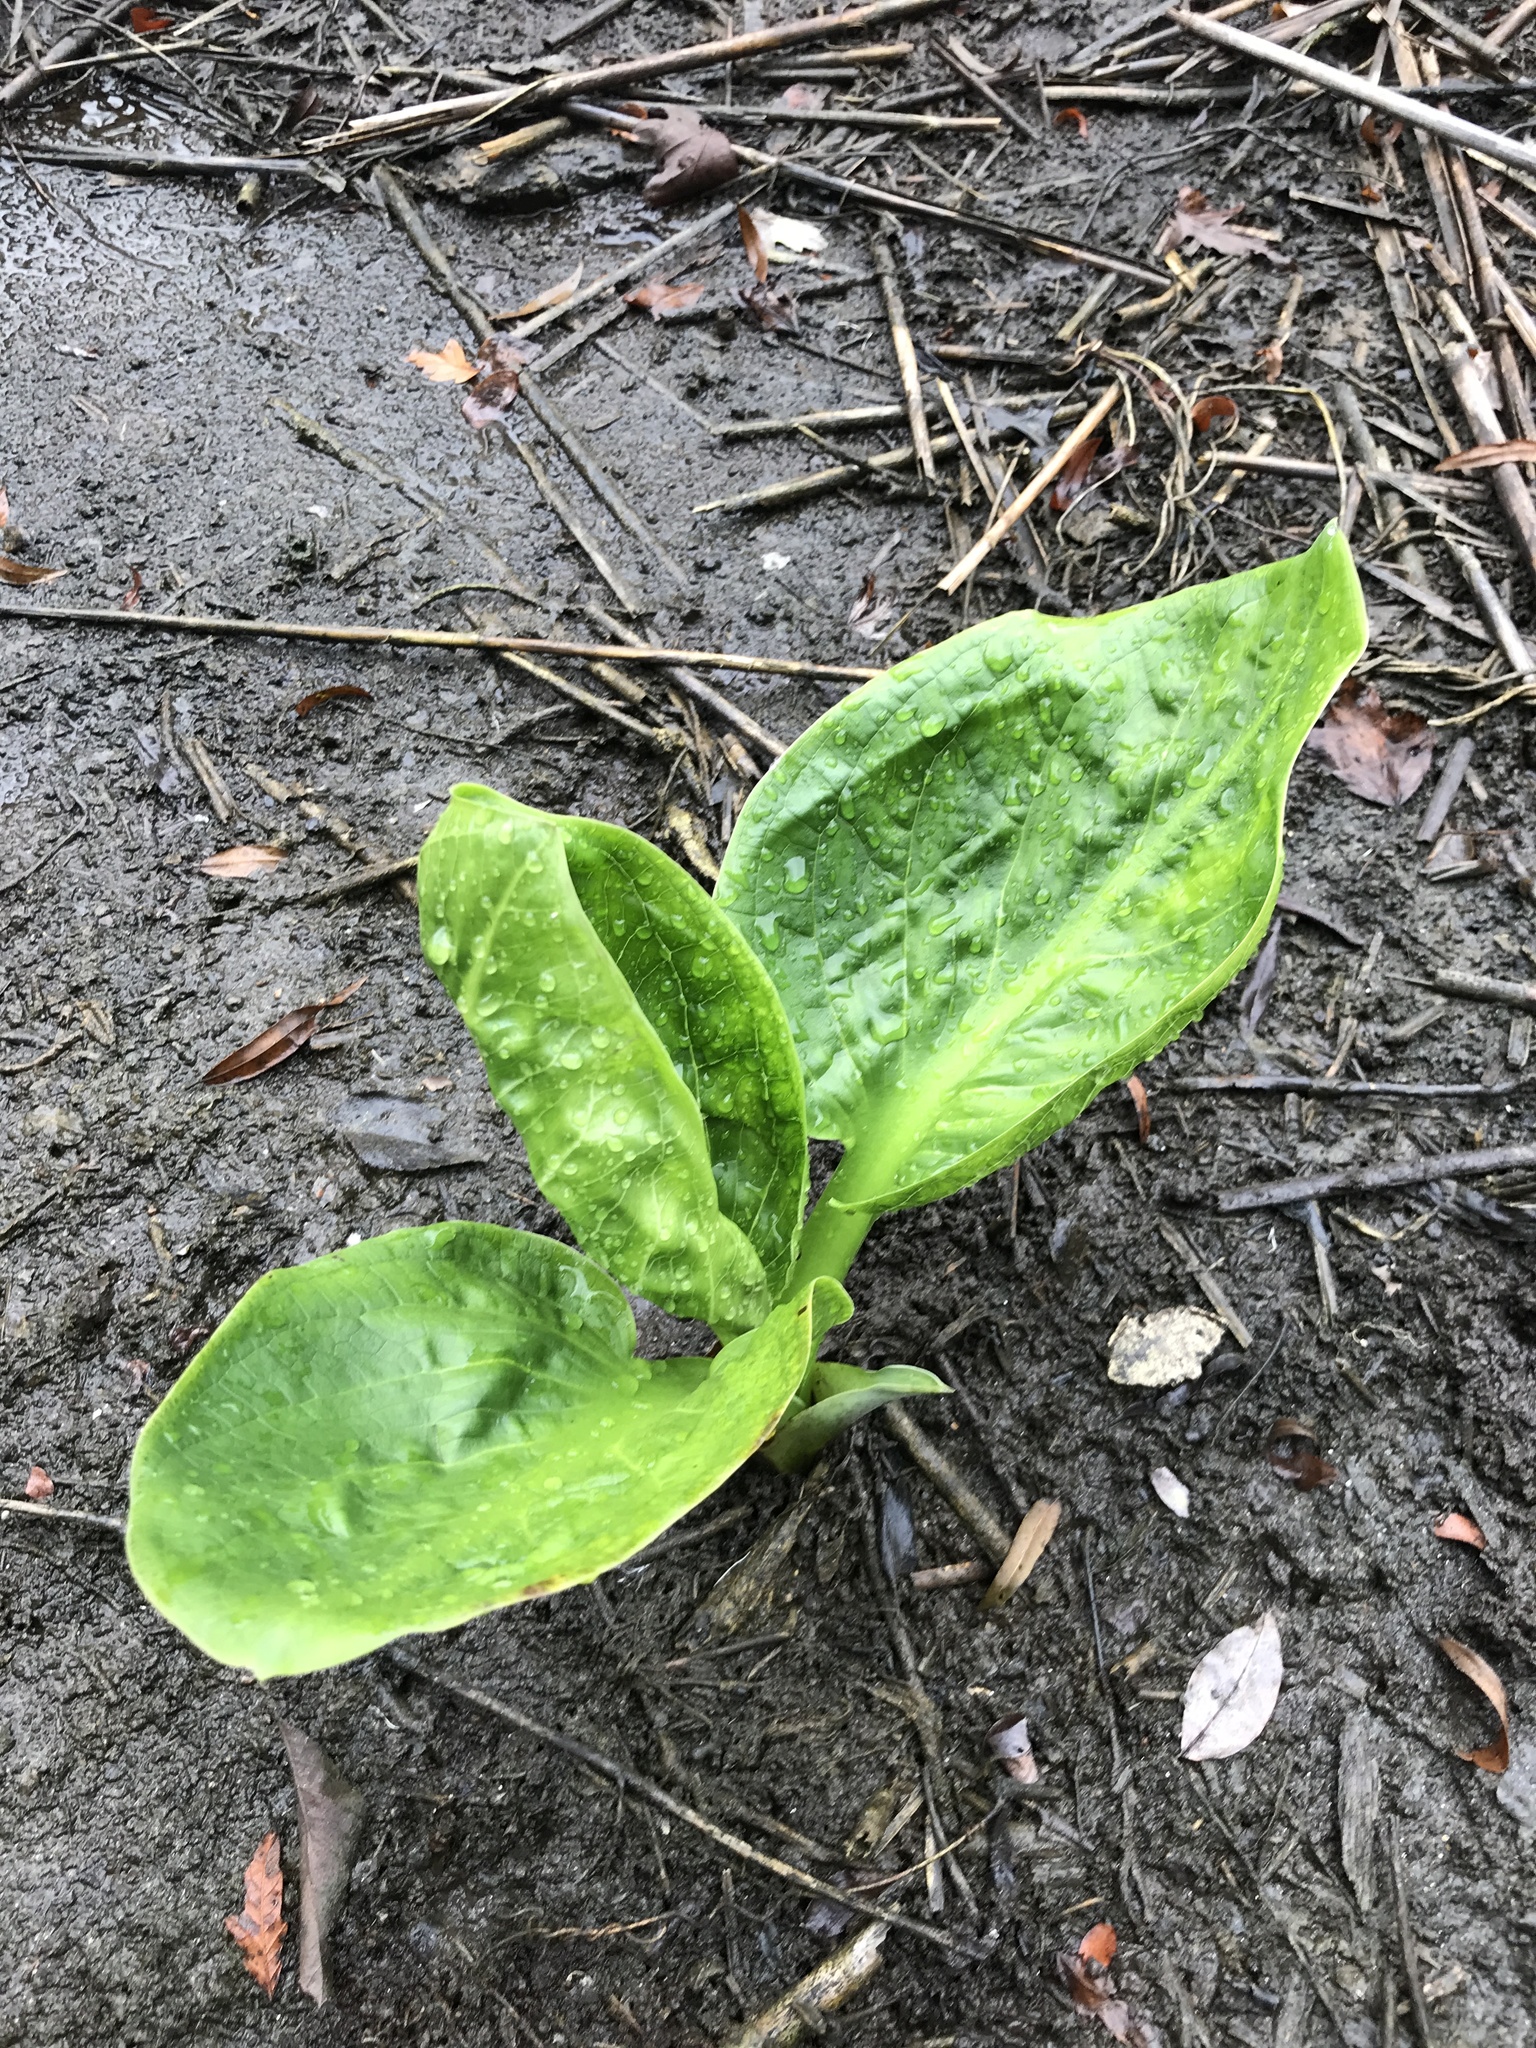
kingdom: Plantae
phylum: Tracheophyta
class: Liliopsida
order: Alismatales
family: Araceae
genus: Symplocarpus
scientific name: Symplocarpus foetidus
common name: Eastern skunk cabbage
